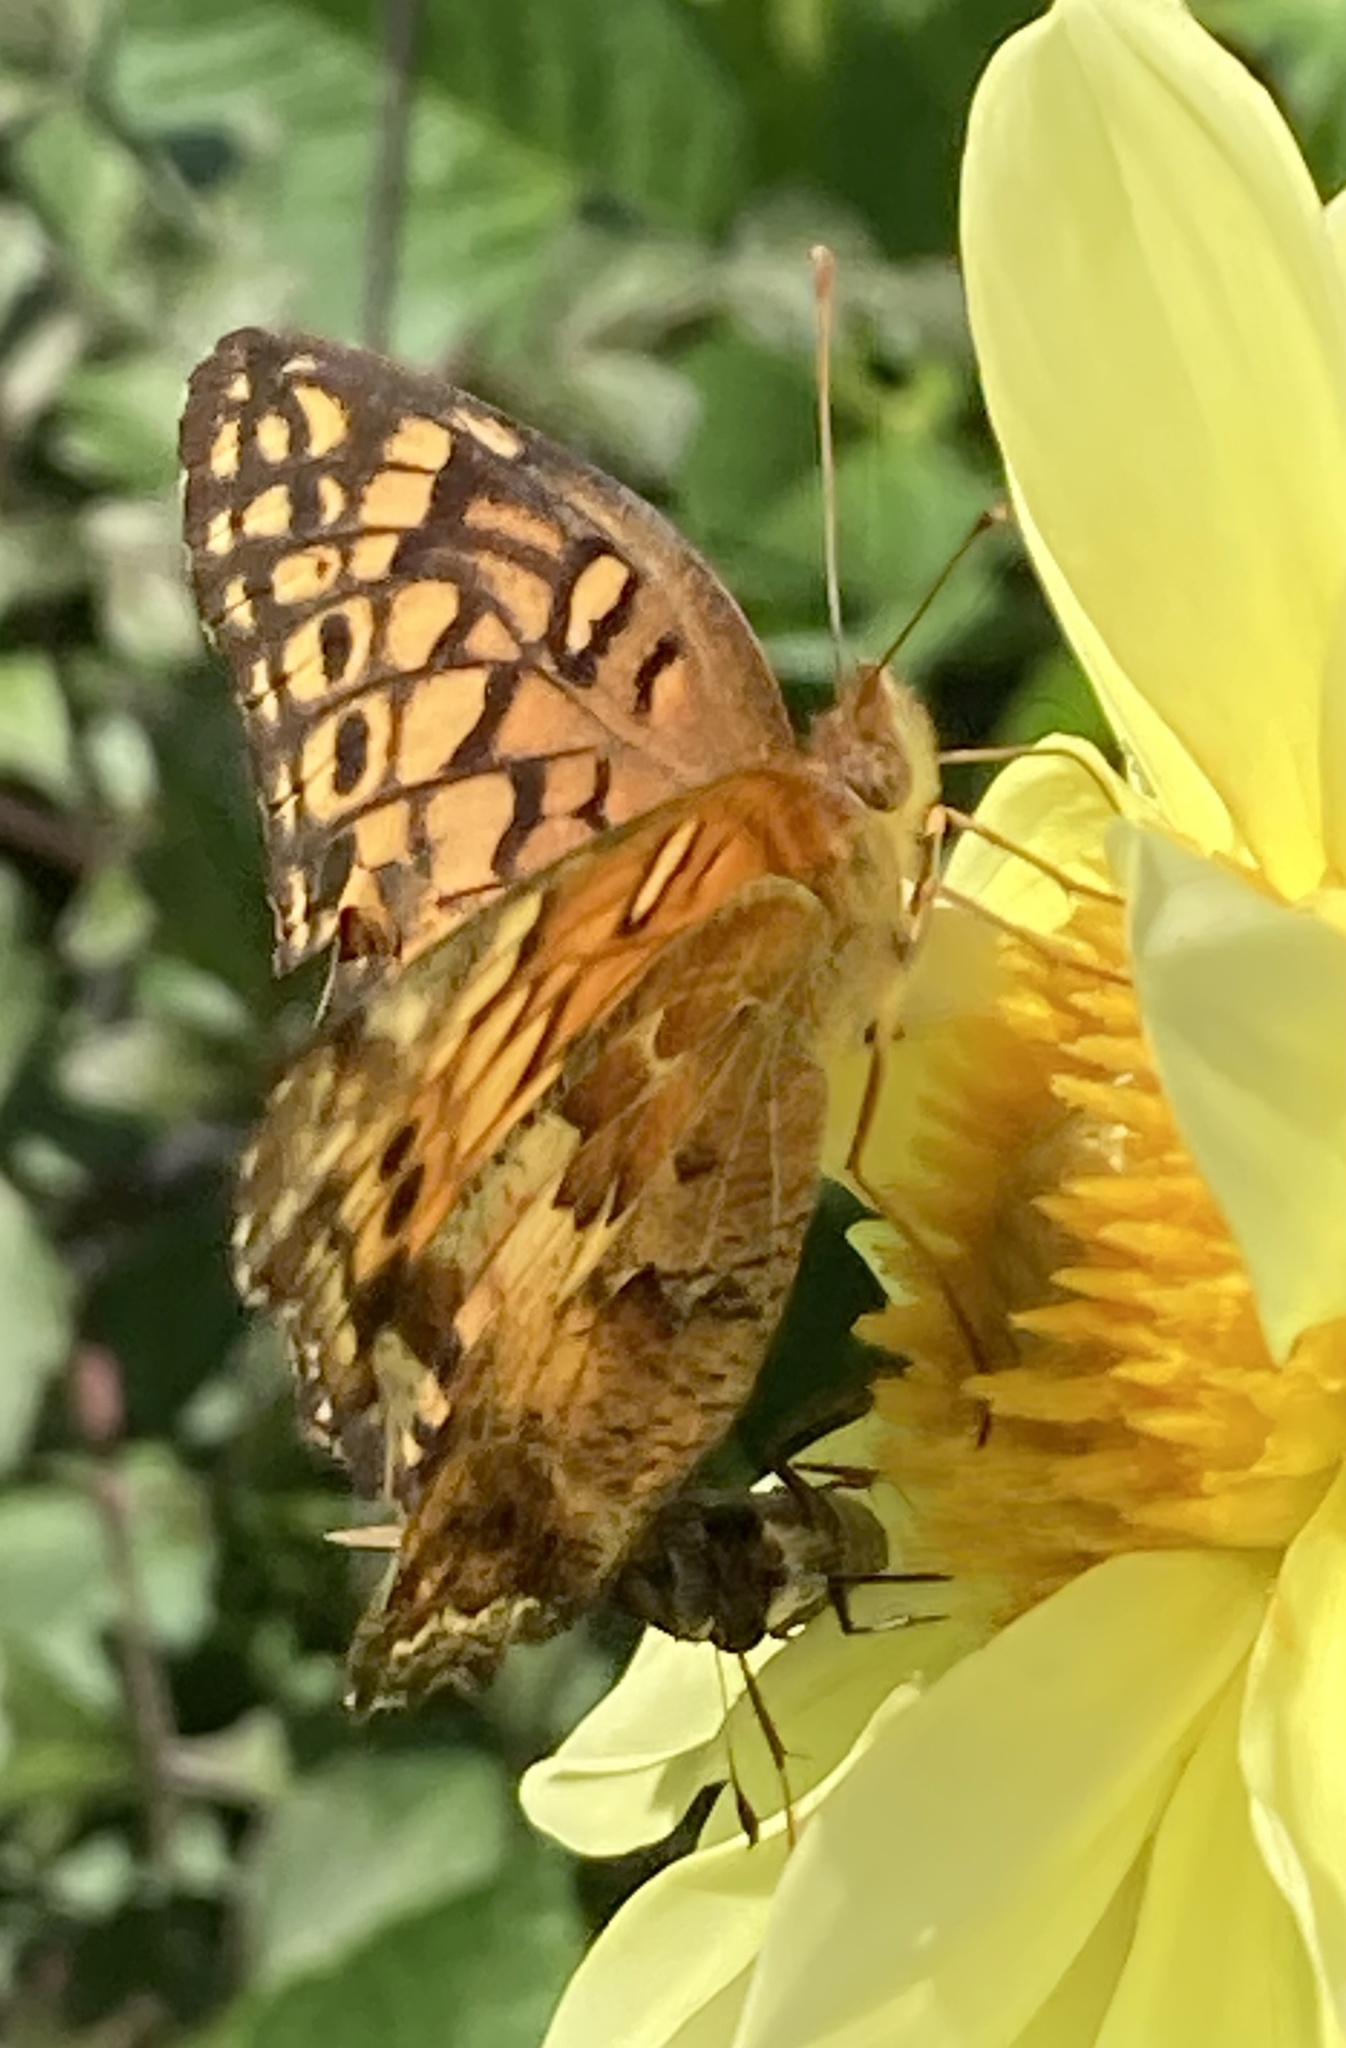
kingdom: Animalia
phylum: Arthropoda
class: Insecta
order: Lepidoptera
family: Nymphalidae
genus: Euptoieta
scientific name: Euptoieta claudia
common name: Variegated fritillary
